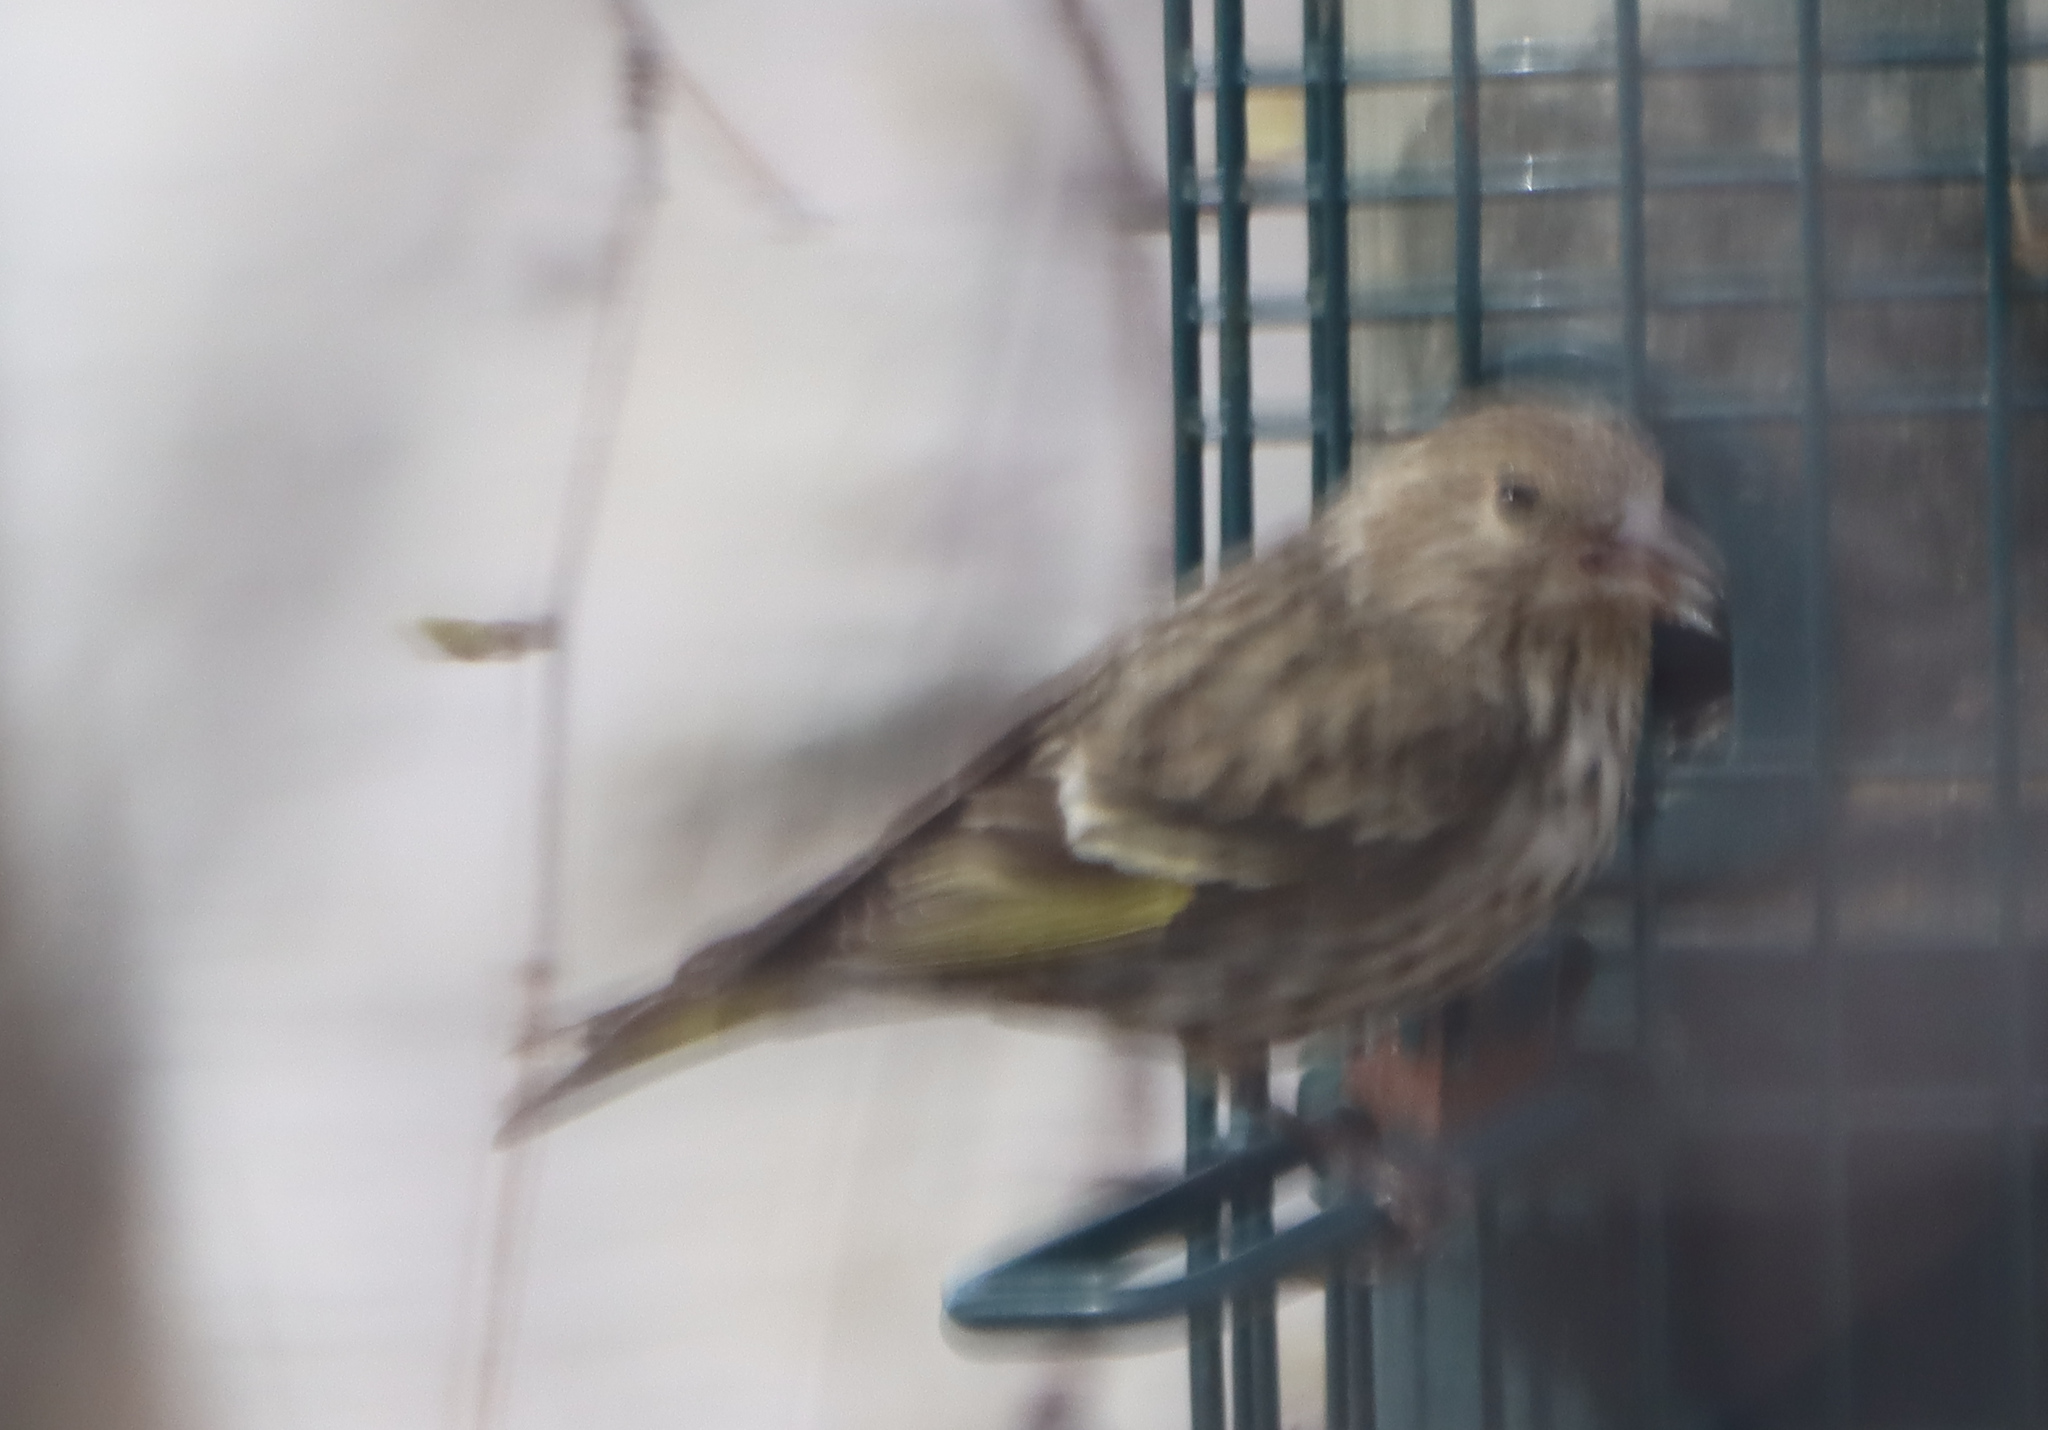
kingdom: Animalia
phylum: Chordata
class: Aves
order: Passeriformes
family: Fringillidae
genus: Spinus
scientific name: Spinus pinus
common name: Pine siskin
